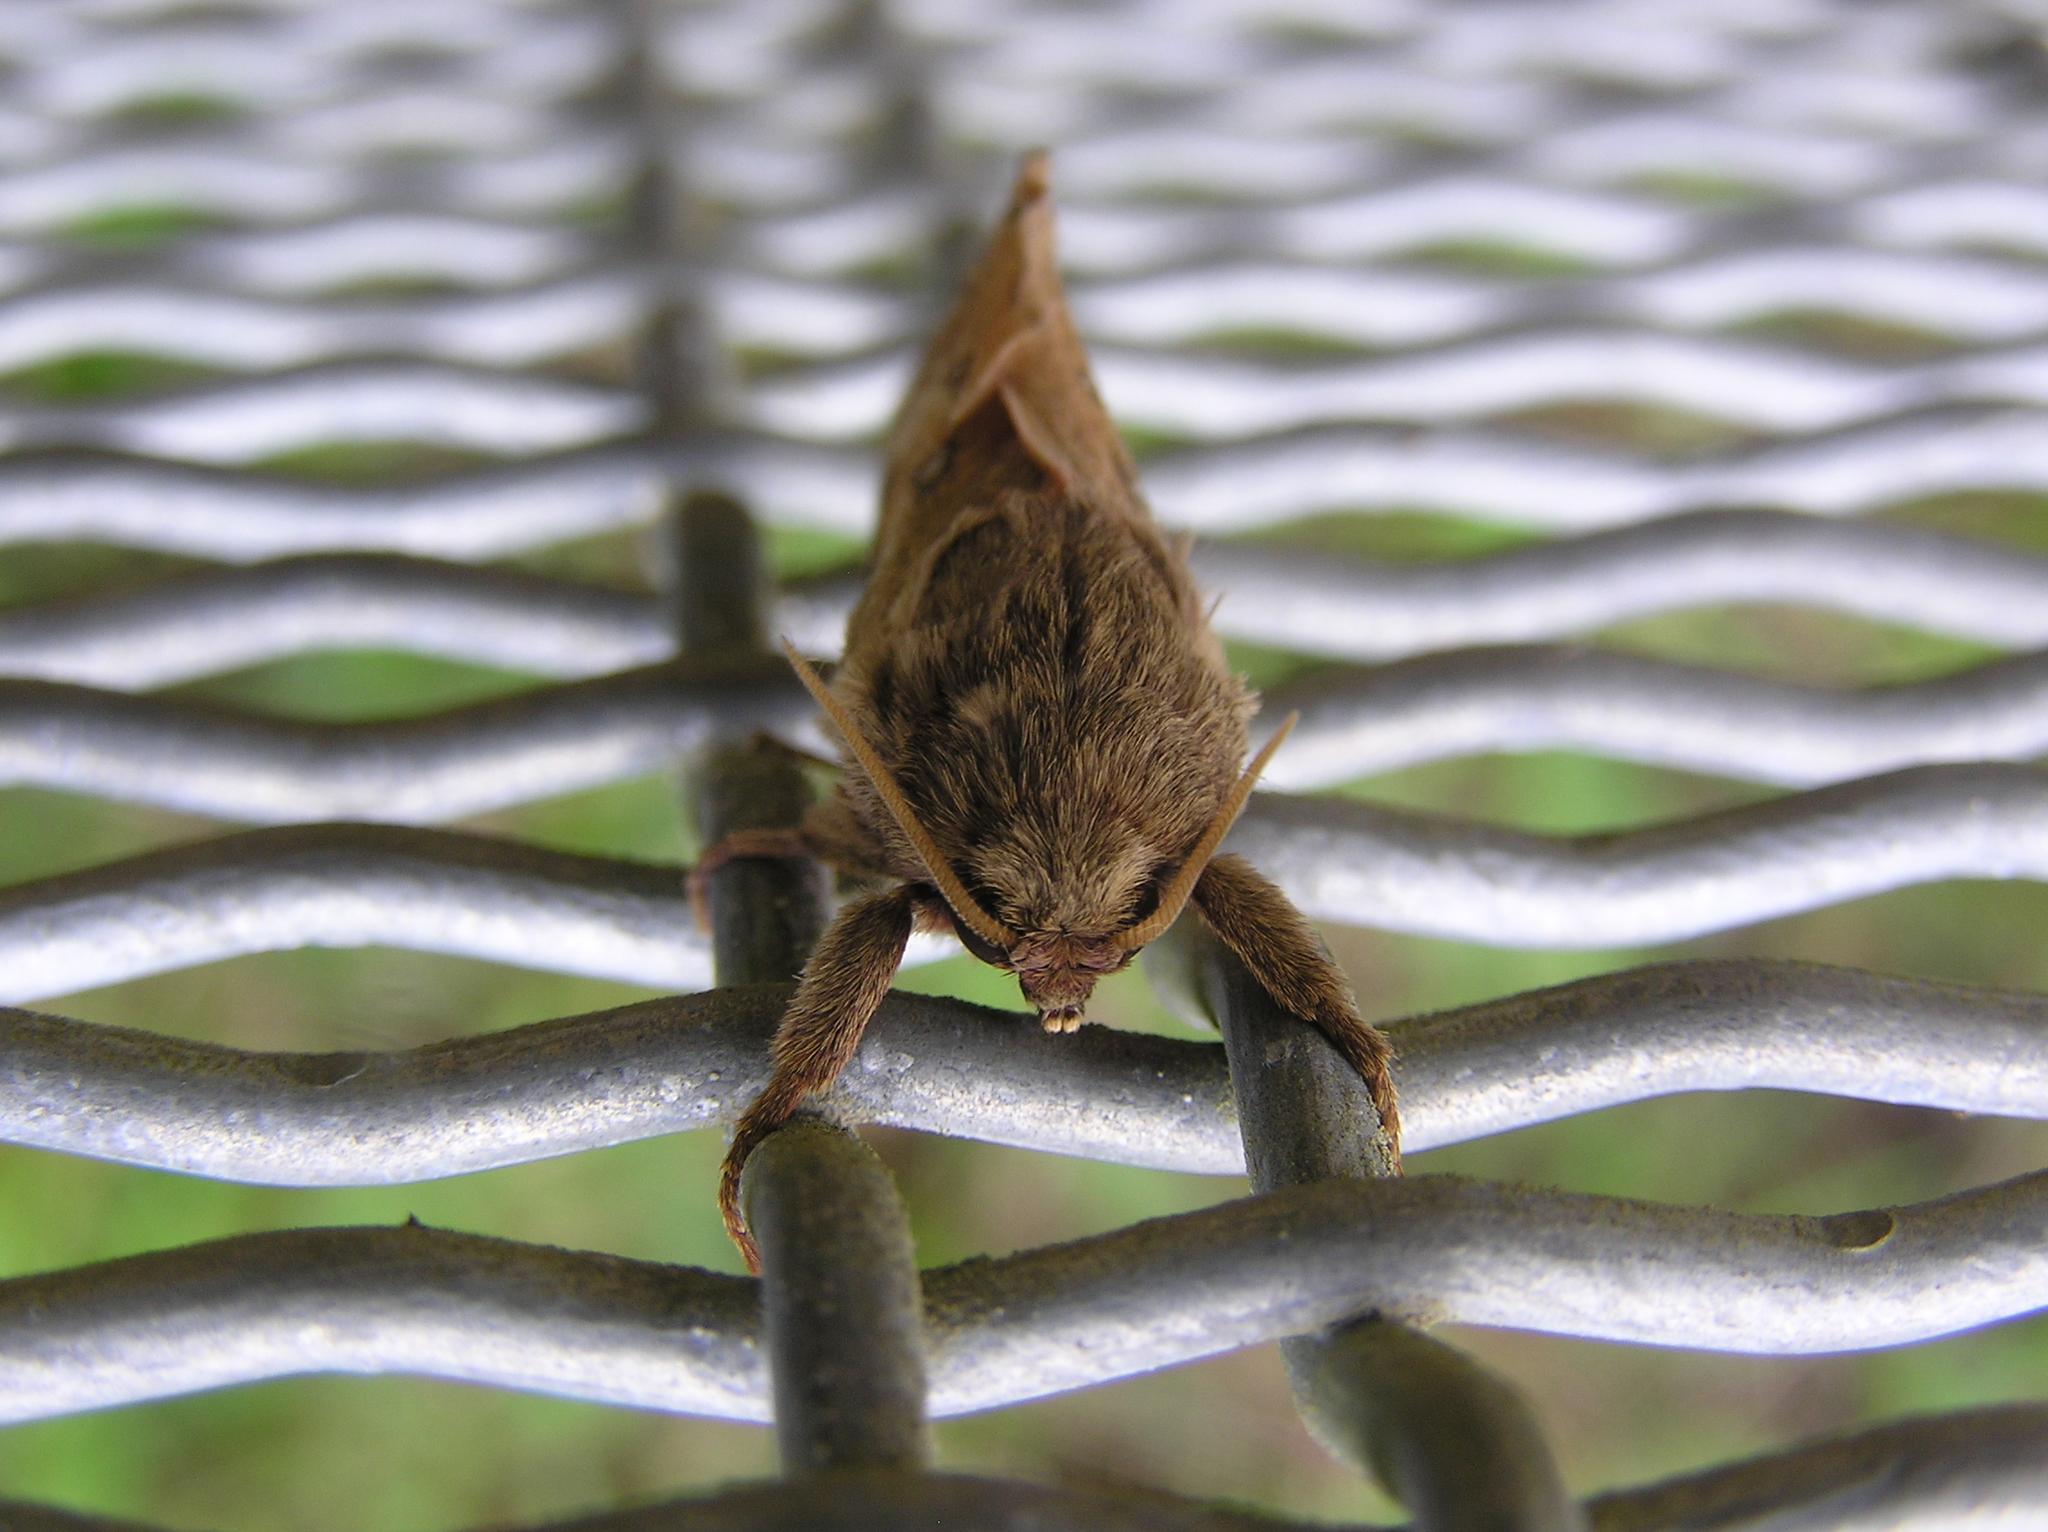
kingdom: Animalia
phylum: Arthropoda
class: Insecta
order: Lepidoptera
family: Hepialidae
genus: Wiseana
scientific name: Wiseana signata
